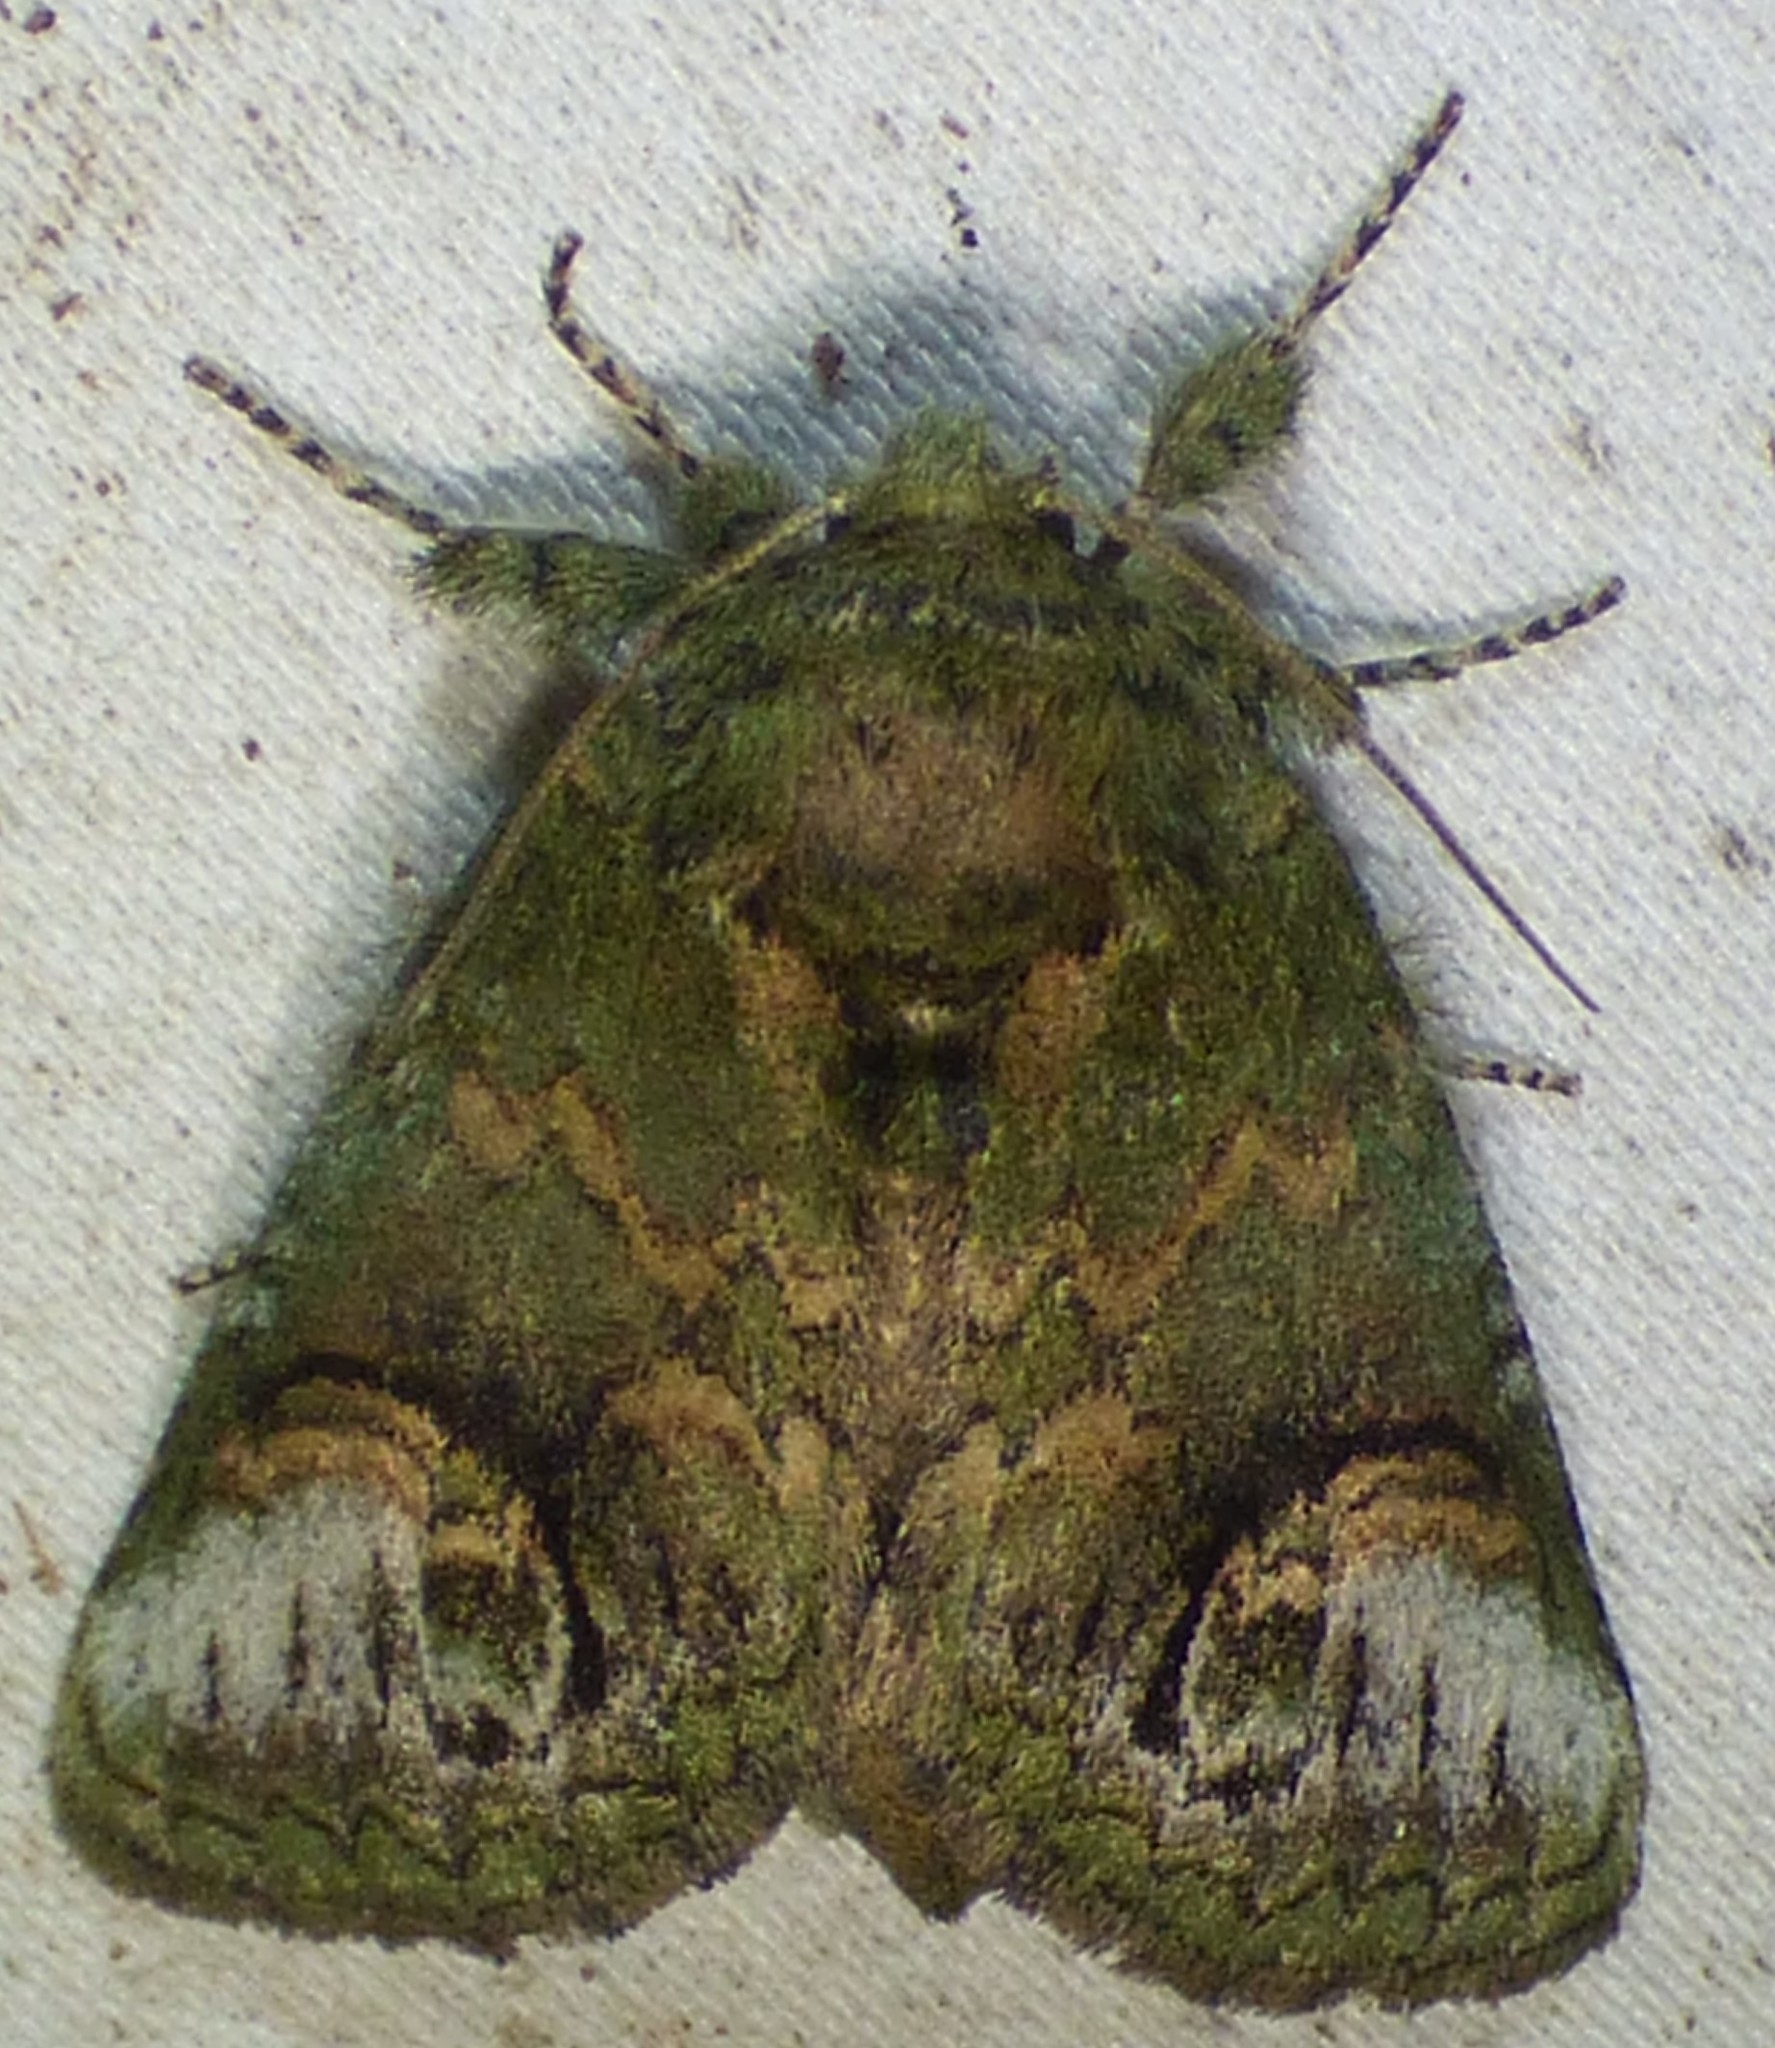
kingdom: Animalia
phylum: Arthropoda
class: Insecta
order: Lepidoptera
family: Notodontidae
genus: Rifargia
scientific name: Rifargia
